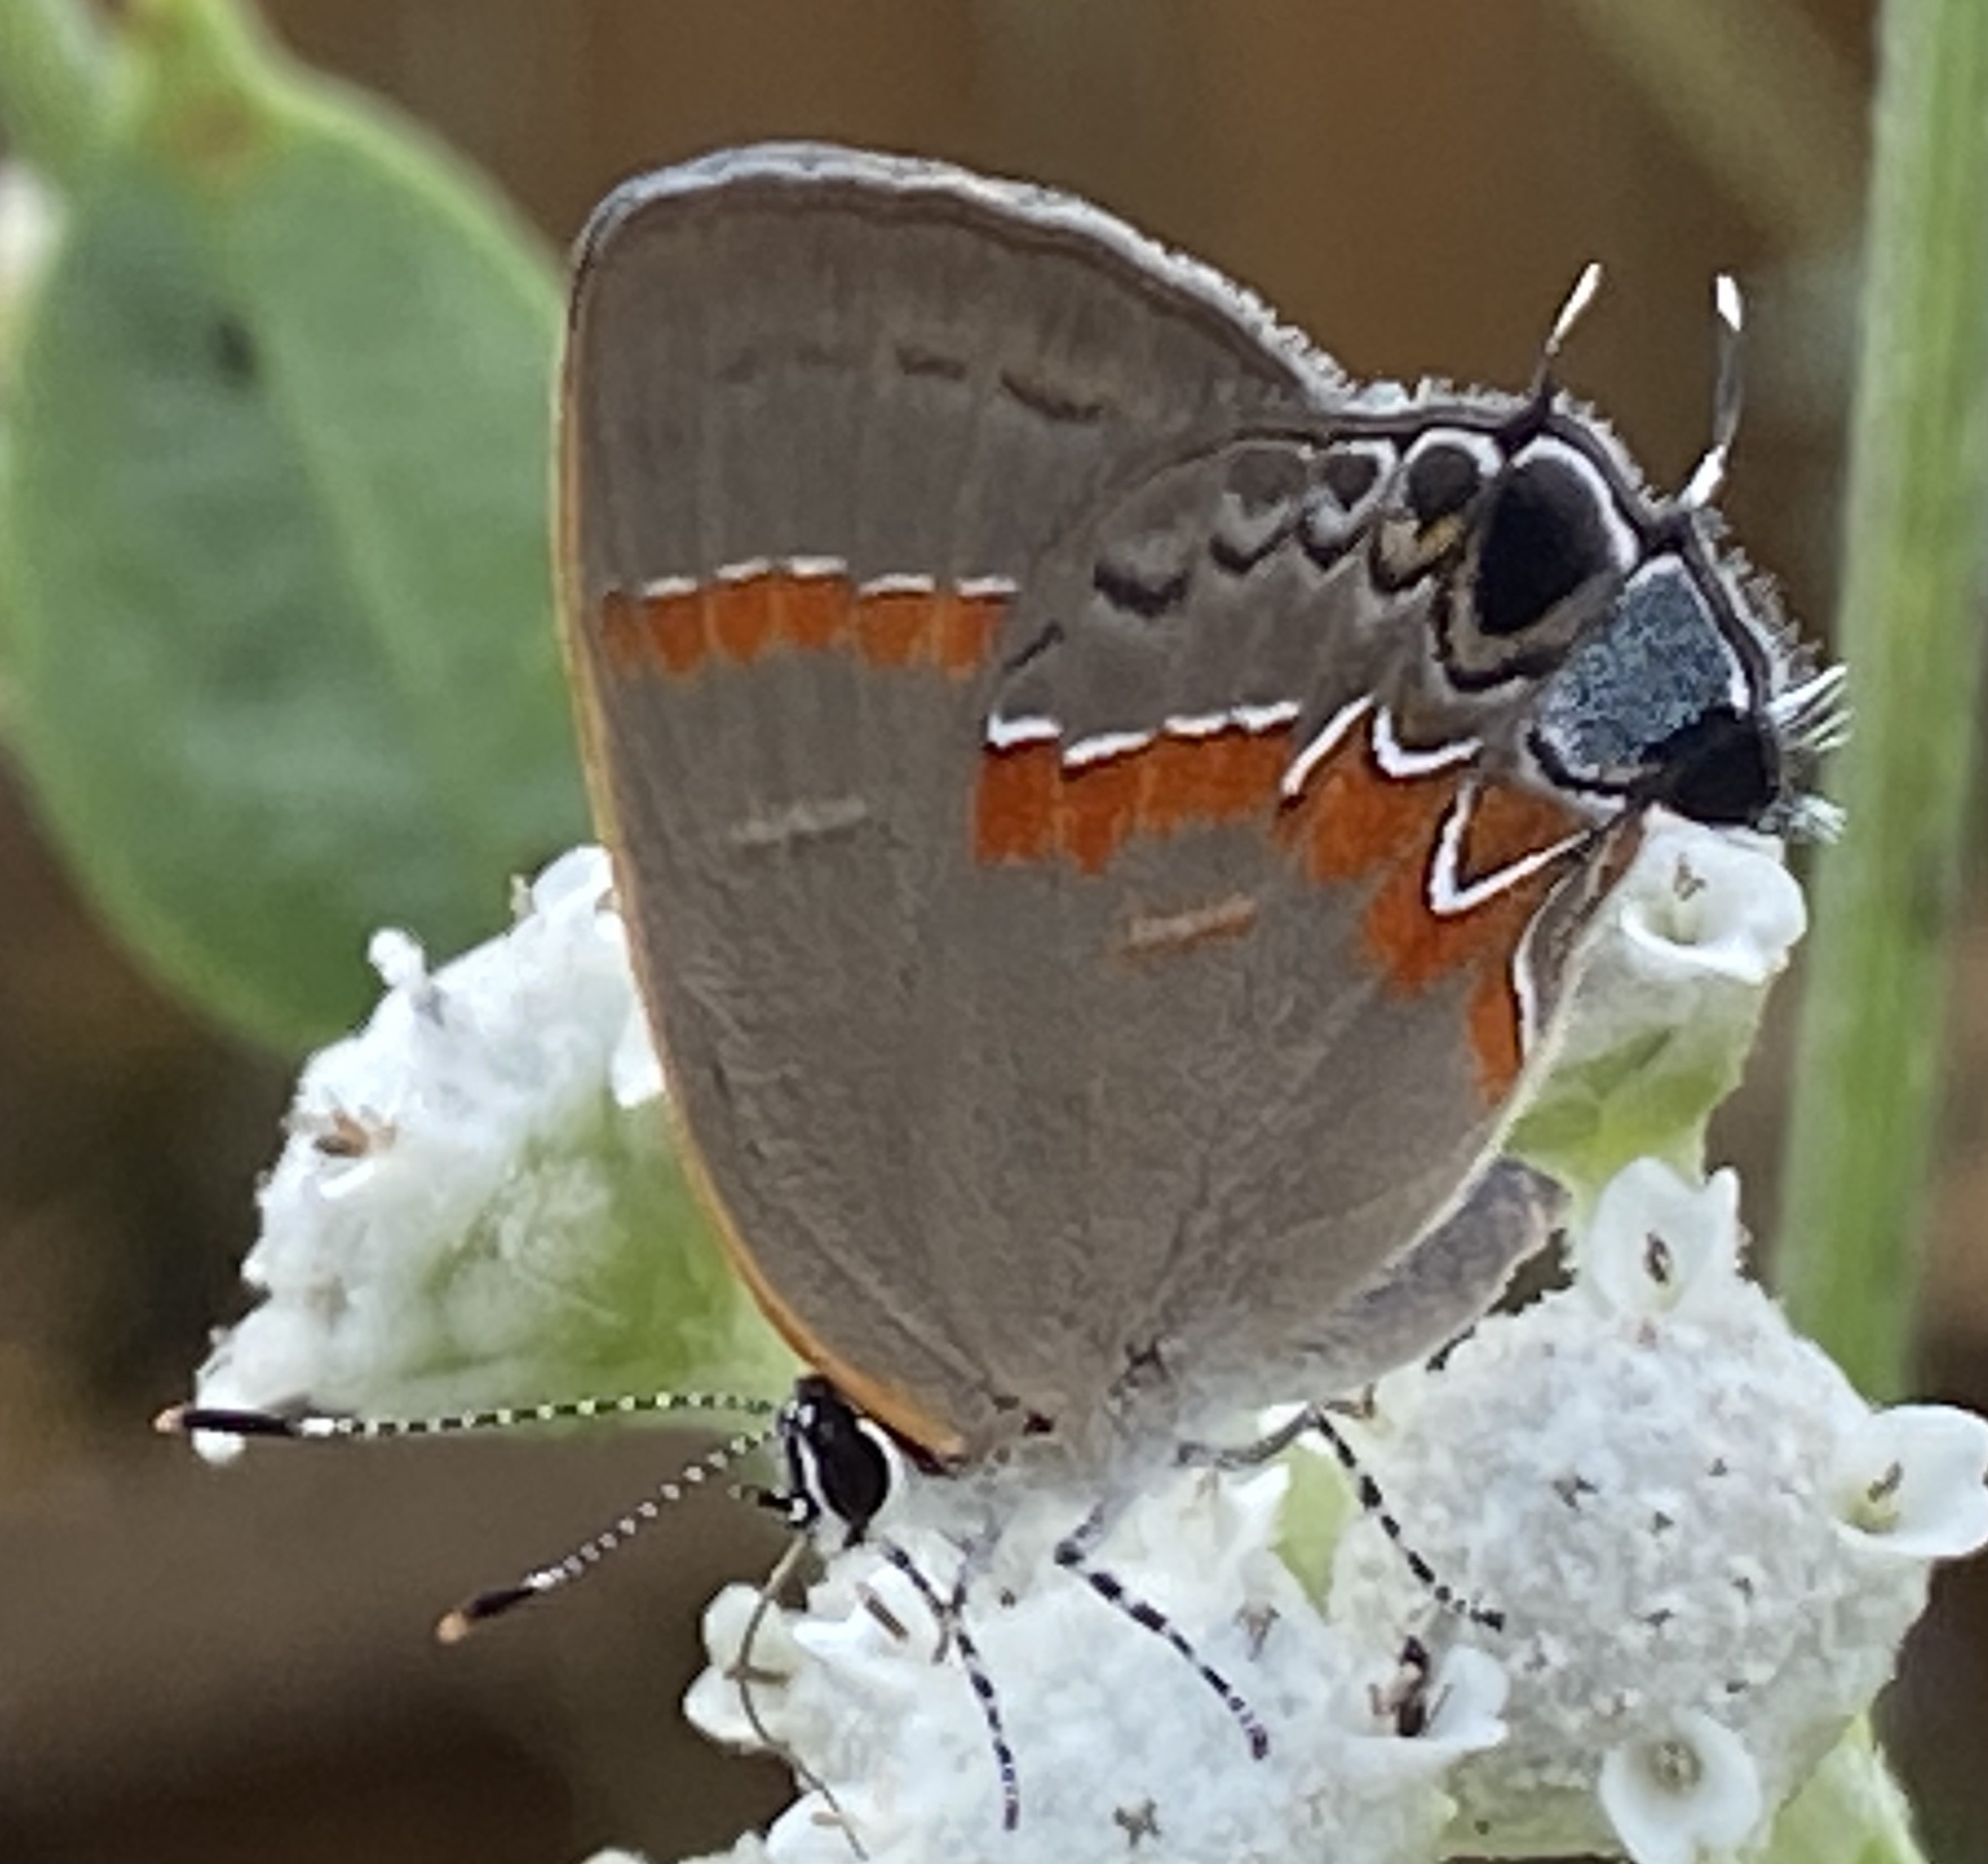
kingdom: Animalia
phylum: Arthropoda
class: Insecta
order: Lepidoptera
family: Lycaenidae
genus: Calycopis
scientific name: Calycopis cecrops
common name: Red-banded hairstreak
